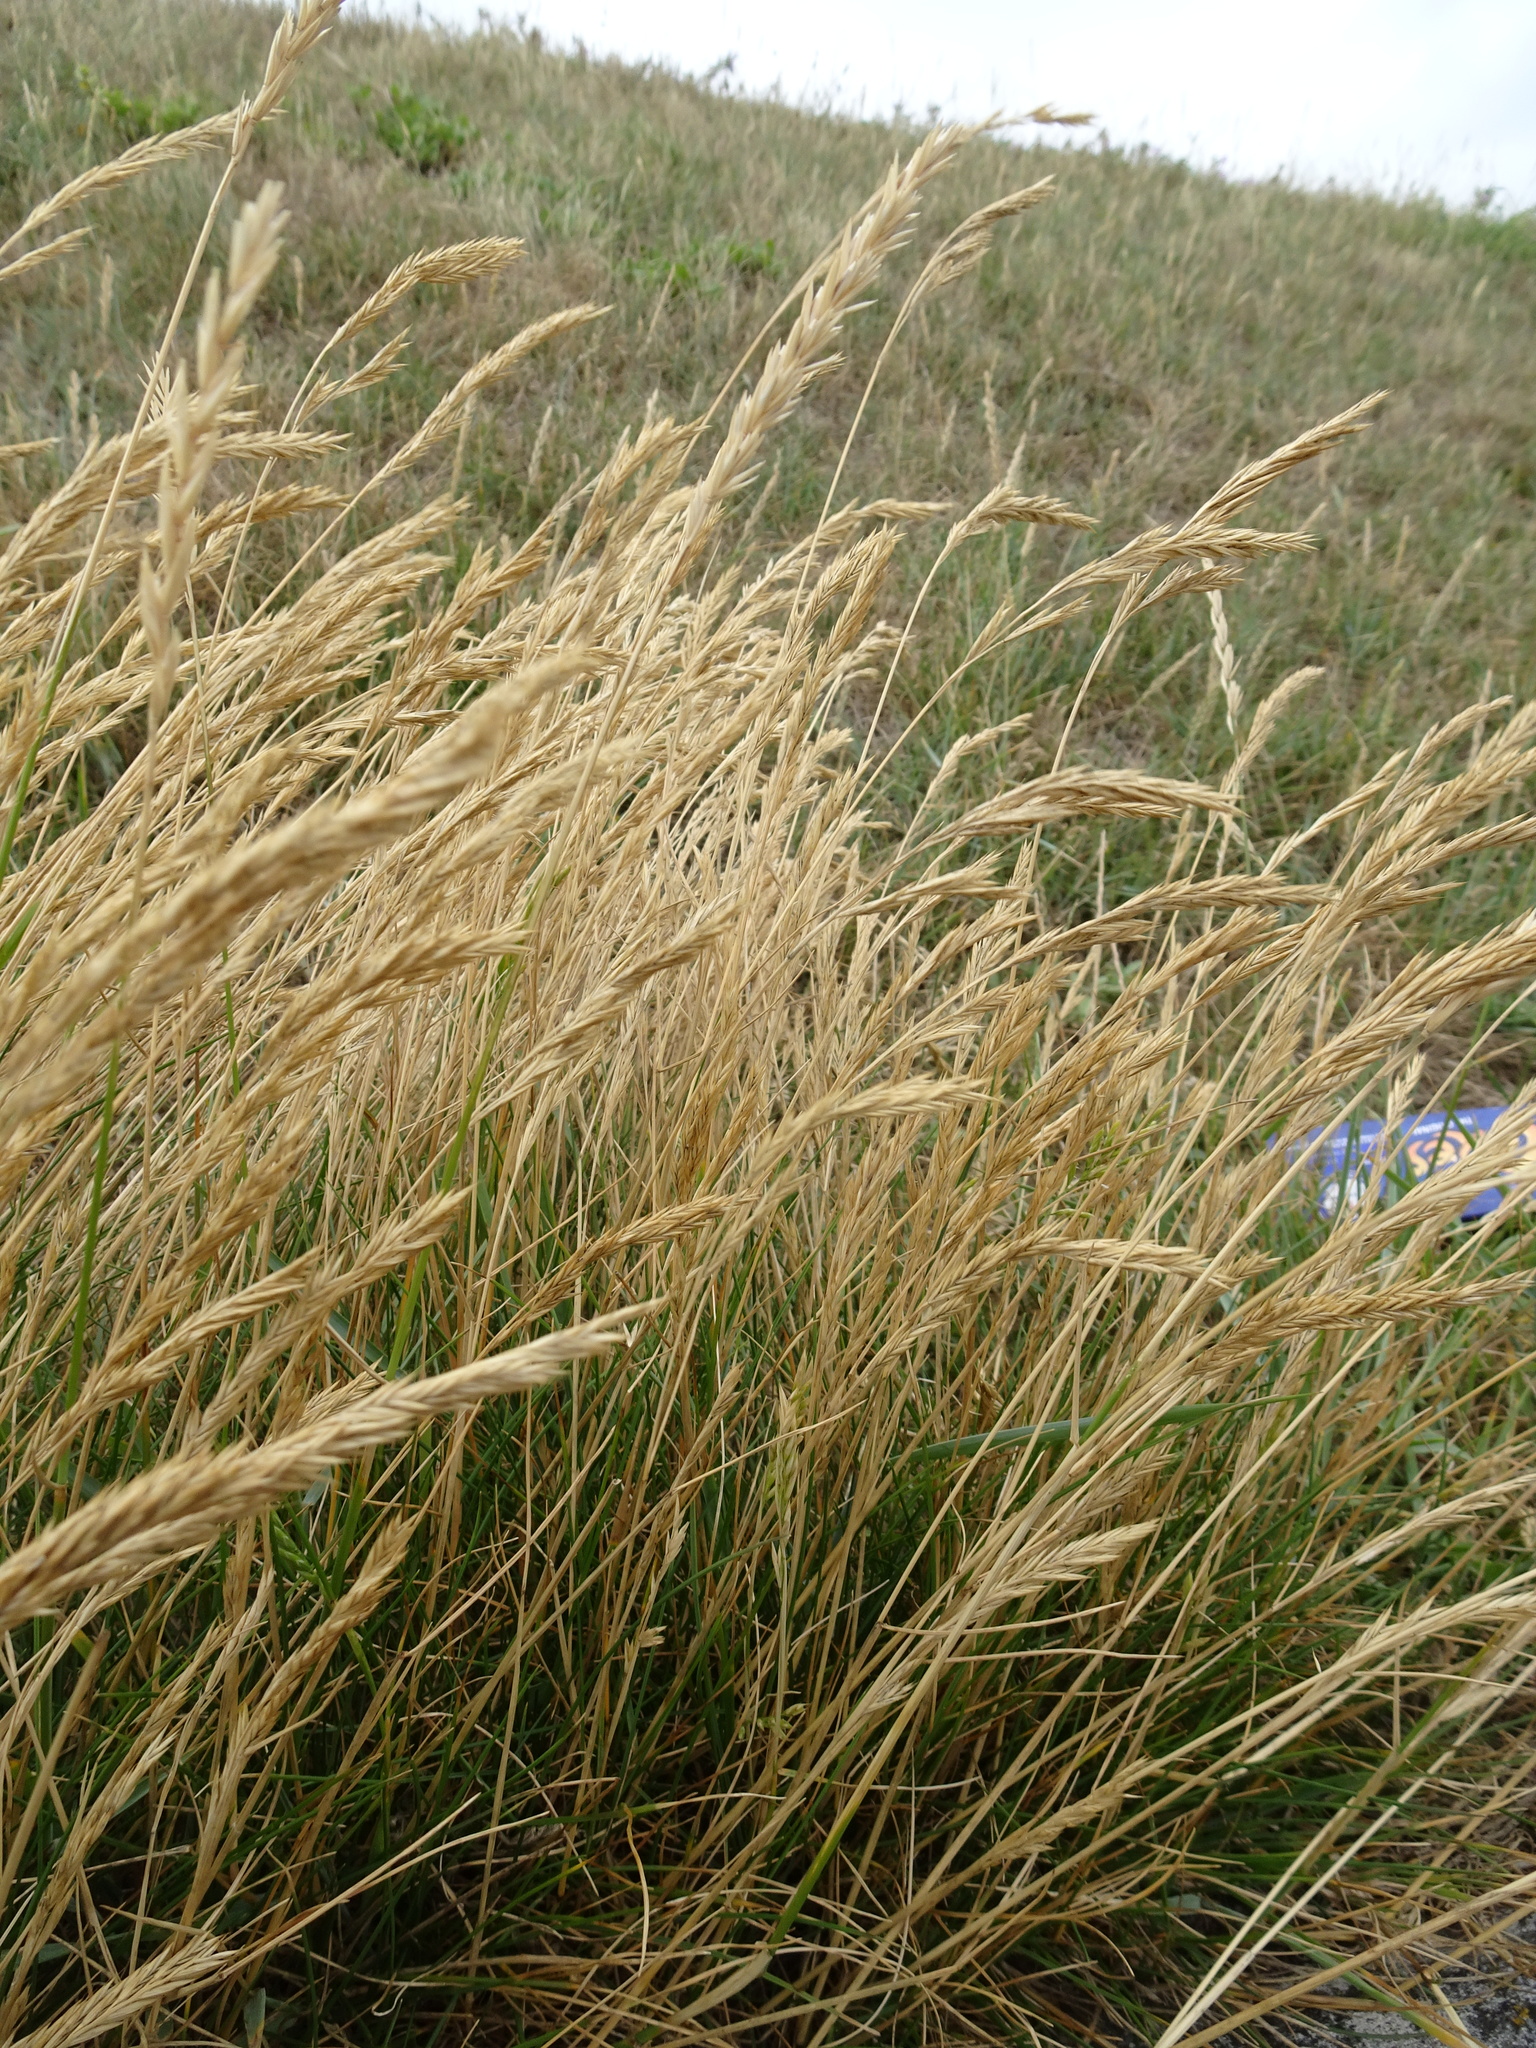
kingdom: Plantae
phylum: Tracheophyta
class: Liliopsida
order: Poales
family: Poaceae
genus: Festuca
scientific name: Festuca rubra
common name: Red fescue
